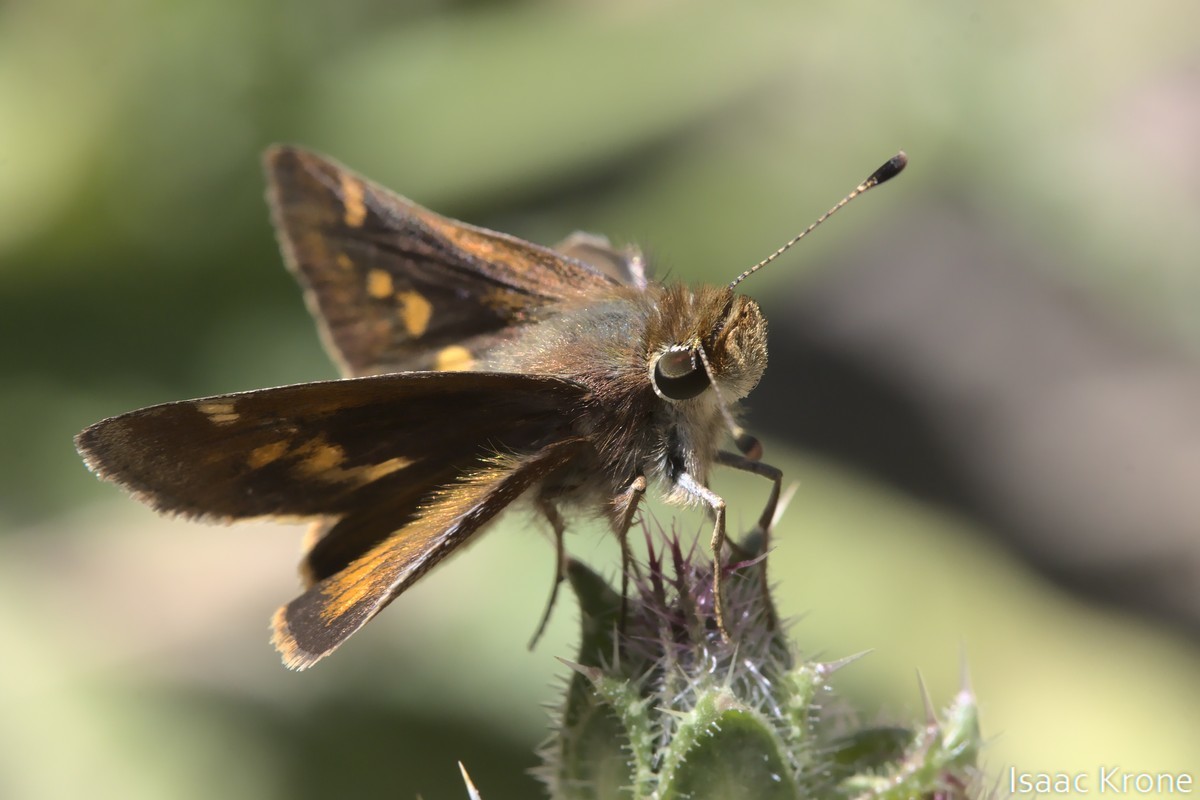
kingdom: Animalia
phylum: Arthropoda
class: Insecta
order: Lepidoptera
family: Hesperiidae
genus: Lon
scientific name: Lon melane
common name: Umber skipper
